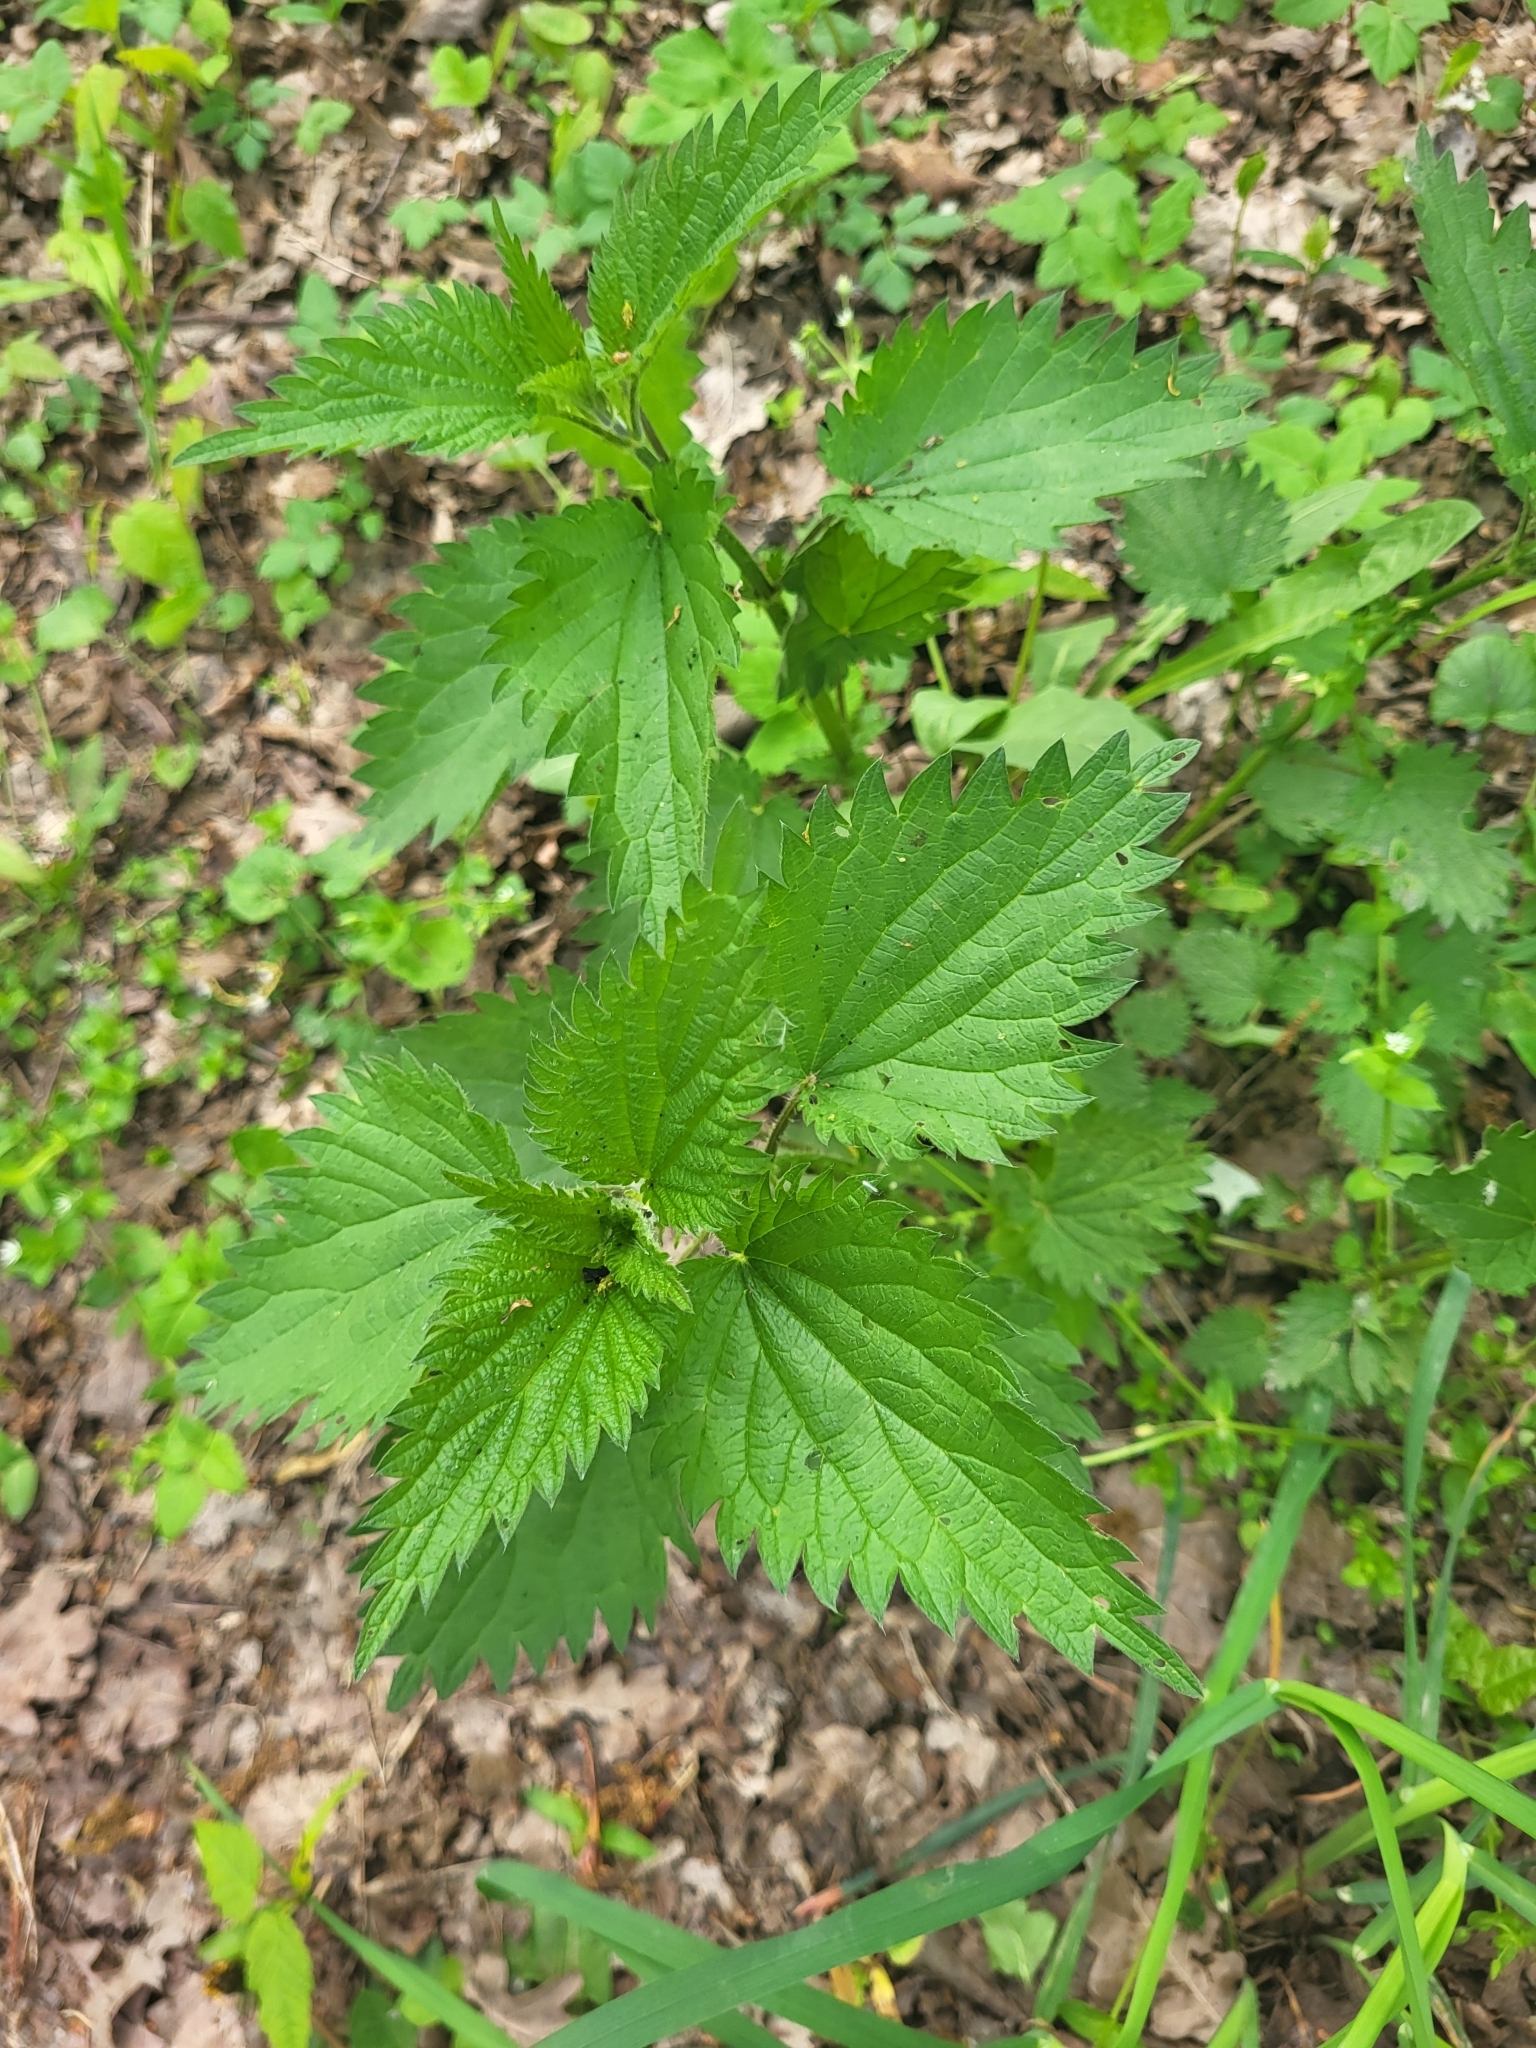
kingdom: Plantae
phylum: Tracheophyta
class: Magnoliopsida
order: Rosales
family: Urticaceae
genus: Urtica
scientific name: Urtica dioica
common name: Common nettle
